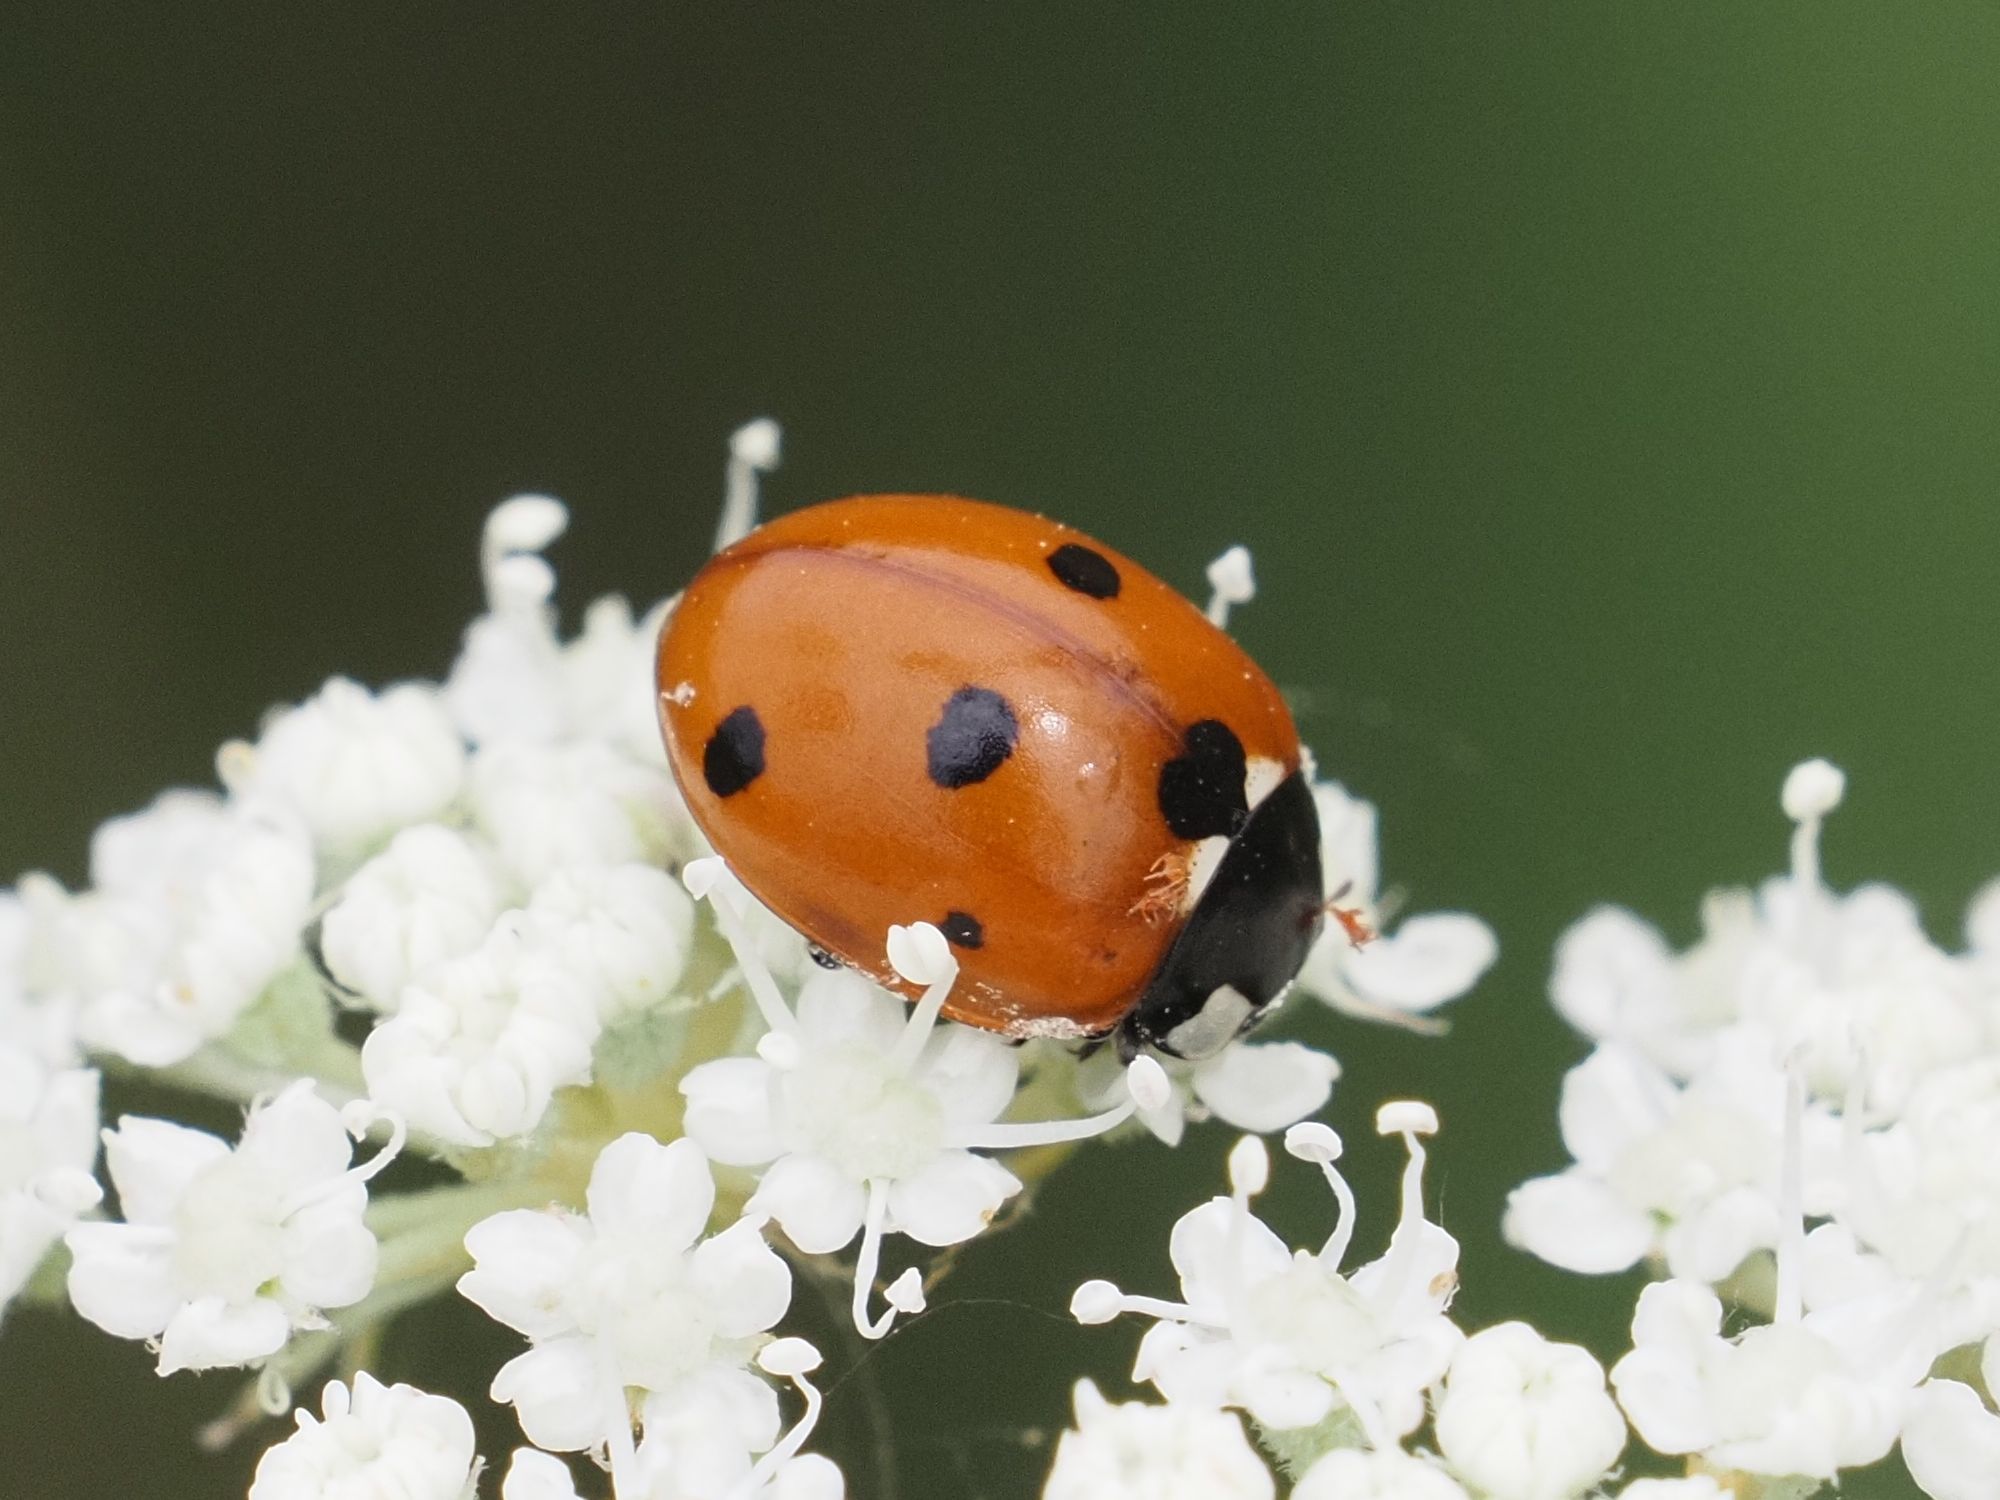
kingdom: Animalia
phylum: Arthropoda
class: Insecta
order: Coleoptera
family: Coccinellidae
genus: Coccinella
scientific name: Coccinella septempunctata
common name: Sevenspotted lady beetle
